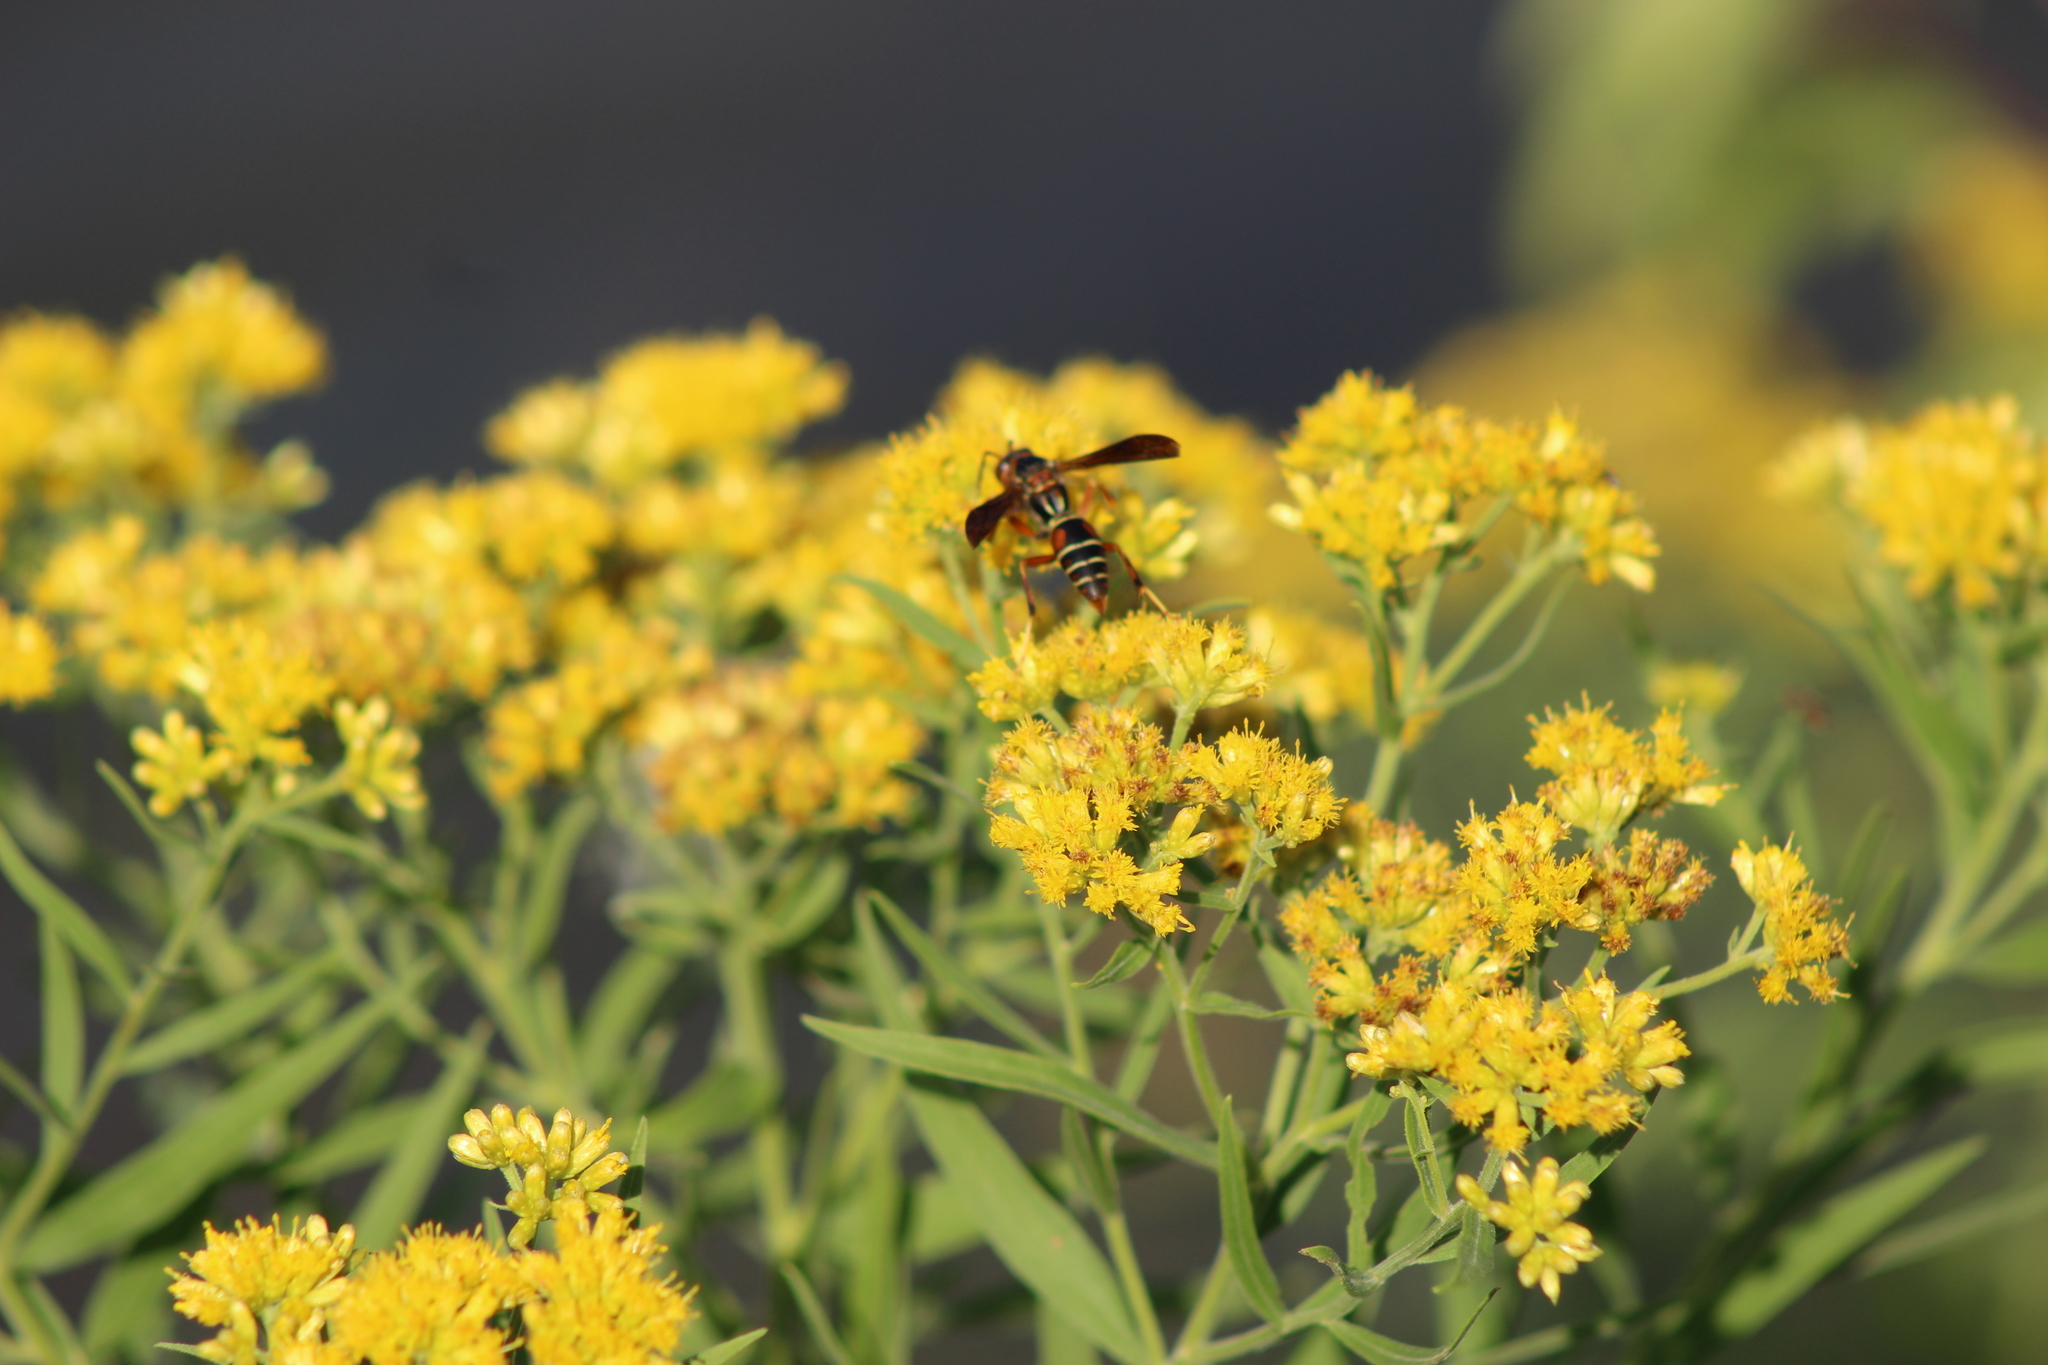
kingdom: Animalia
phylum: Arthropoda
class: Insecta
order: Hymenoptera
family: Eumenidae
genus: Polistes
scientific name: Polistes fuscatus
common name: Dark paper wasp
